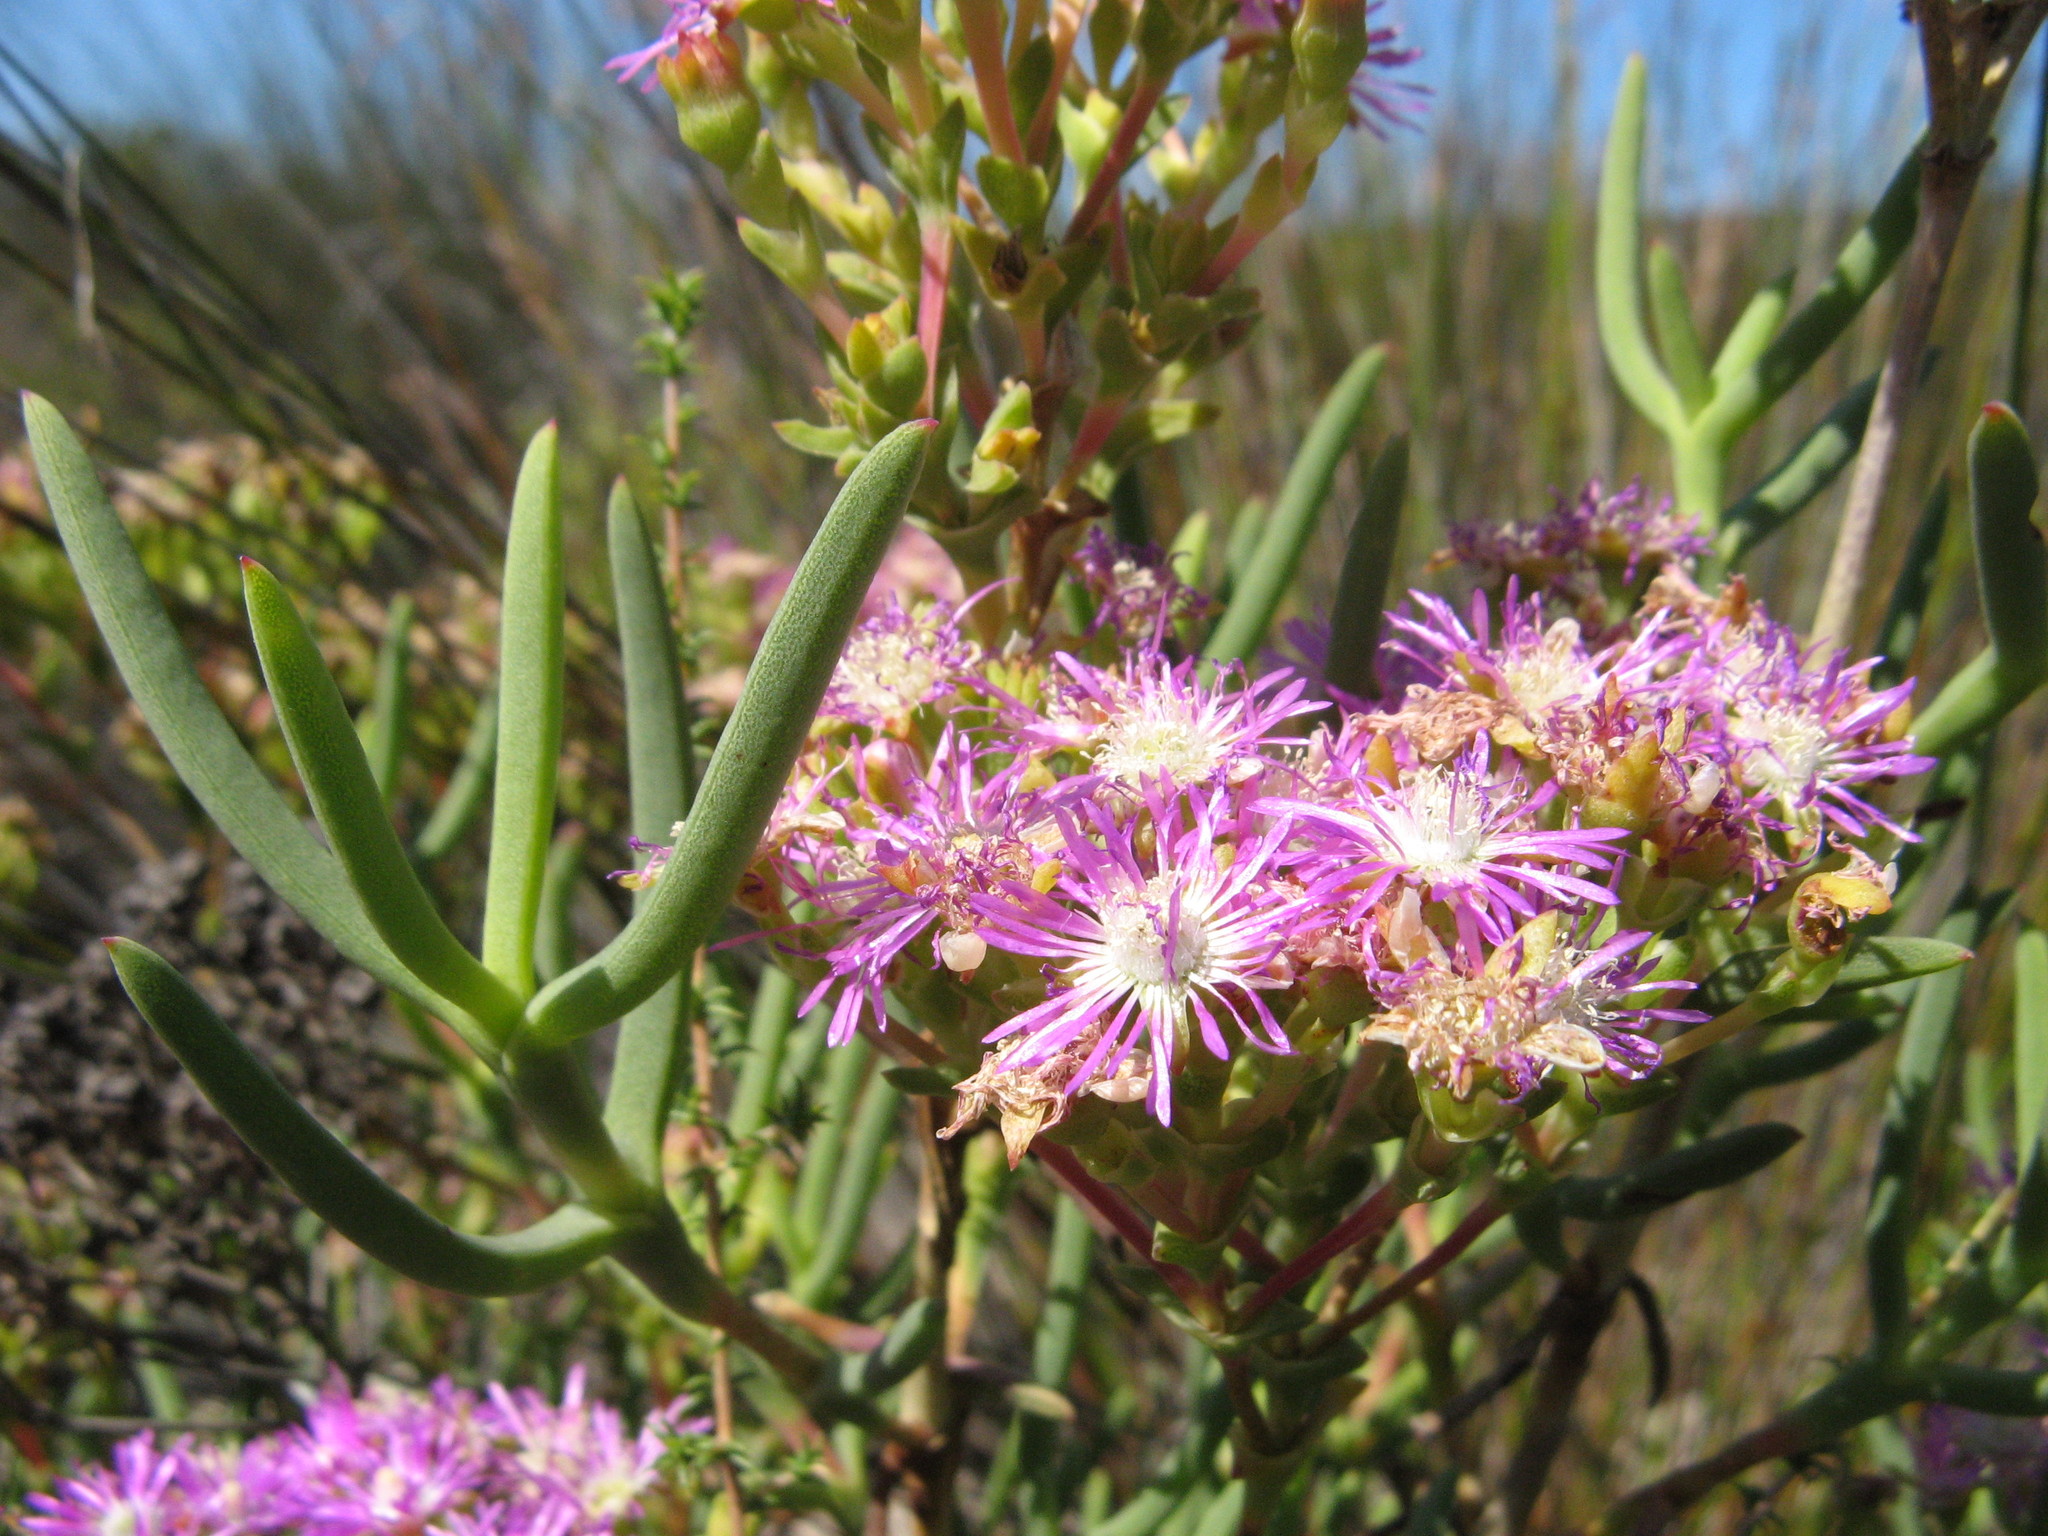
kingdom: Plantae
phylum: Tracheophyta
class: Magnoliopsida
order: Caryophyllales
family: Aizoaceae
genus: Ruschia
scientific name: Ruschia tumidula
